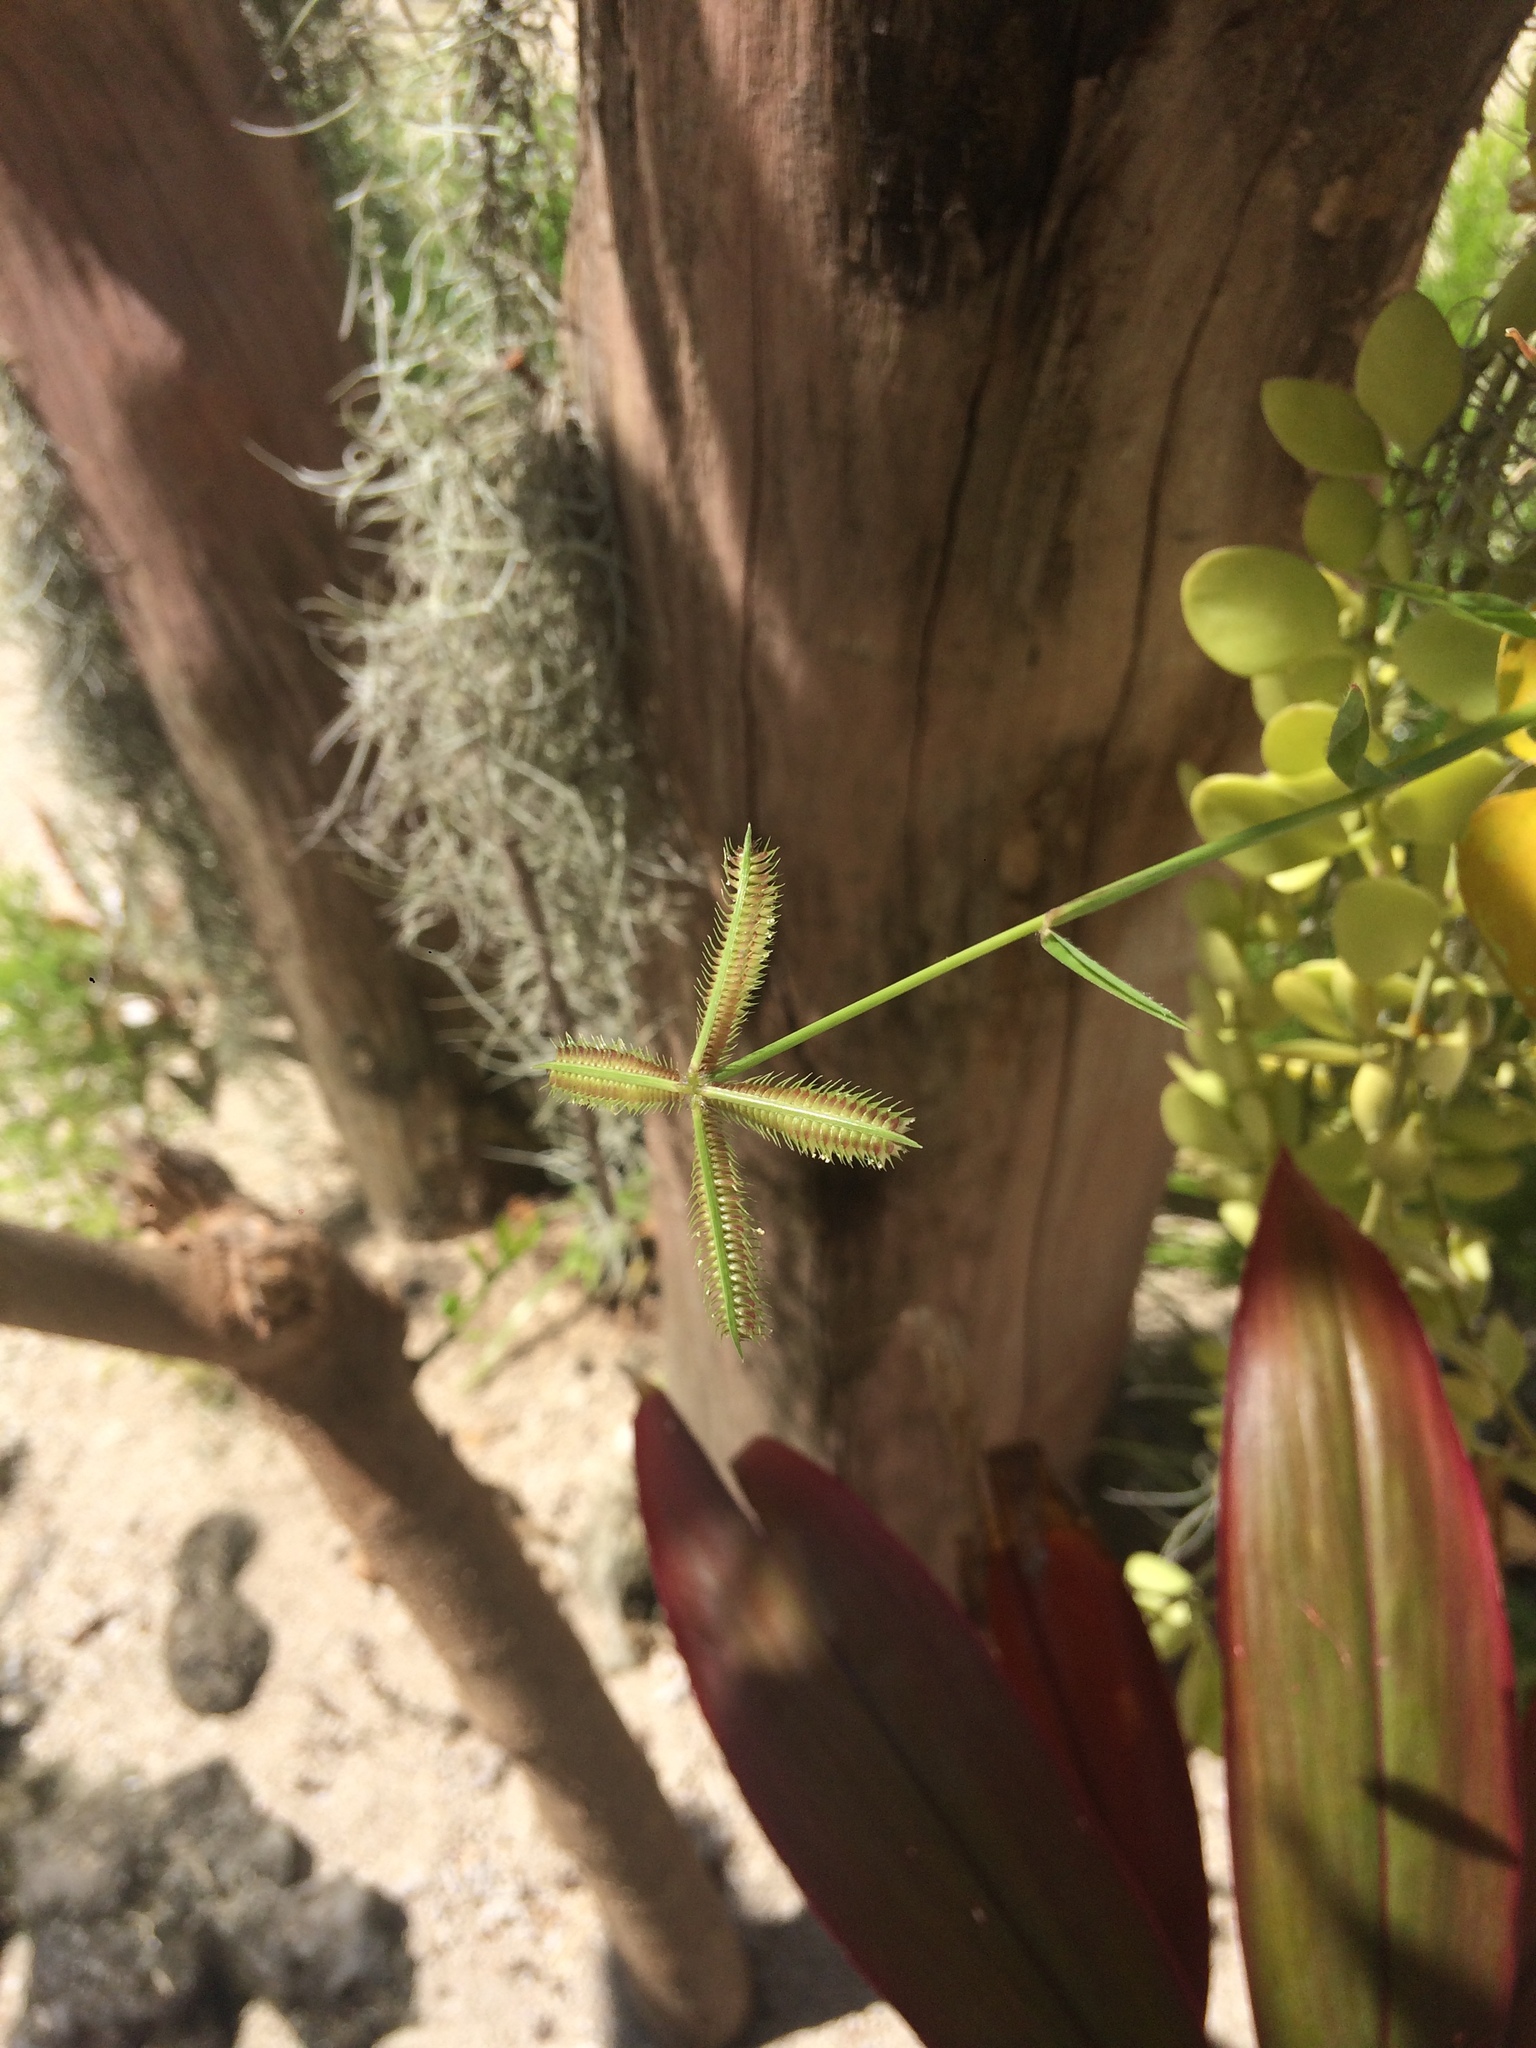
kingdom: Plantae
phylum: Tracheophyta
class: Liliopsida
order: Poales
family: Poaceae
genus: Dactyloctenium
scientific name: Dactyloctenium aegyptium
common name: Egyptian grass
